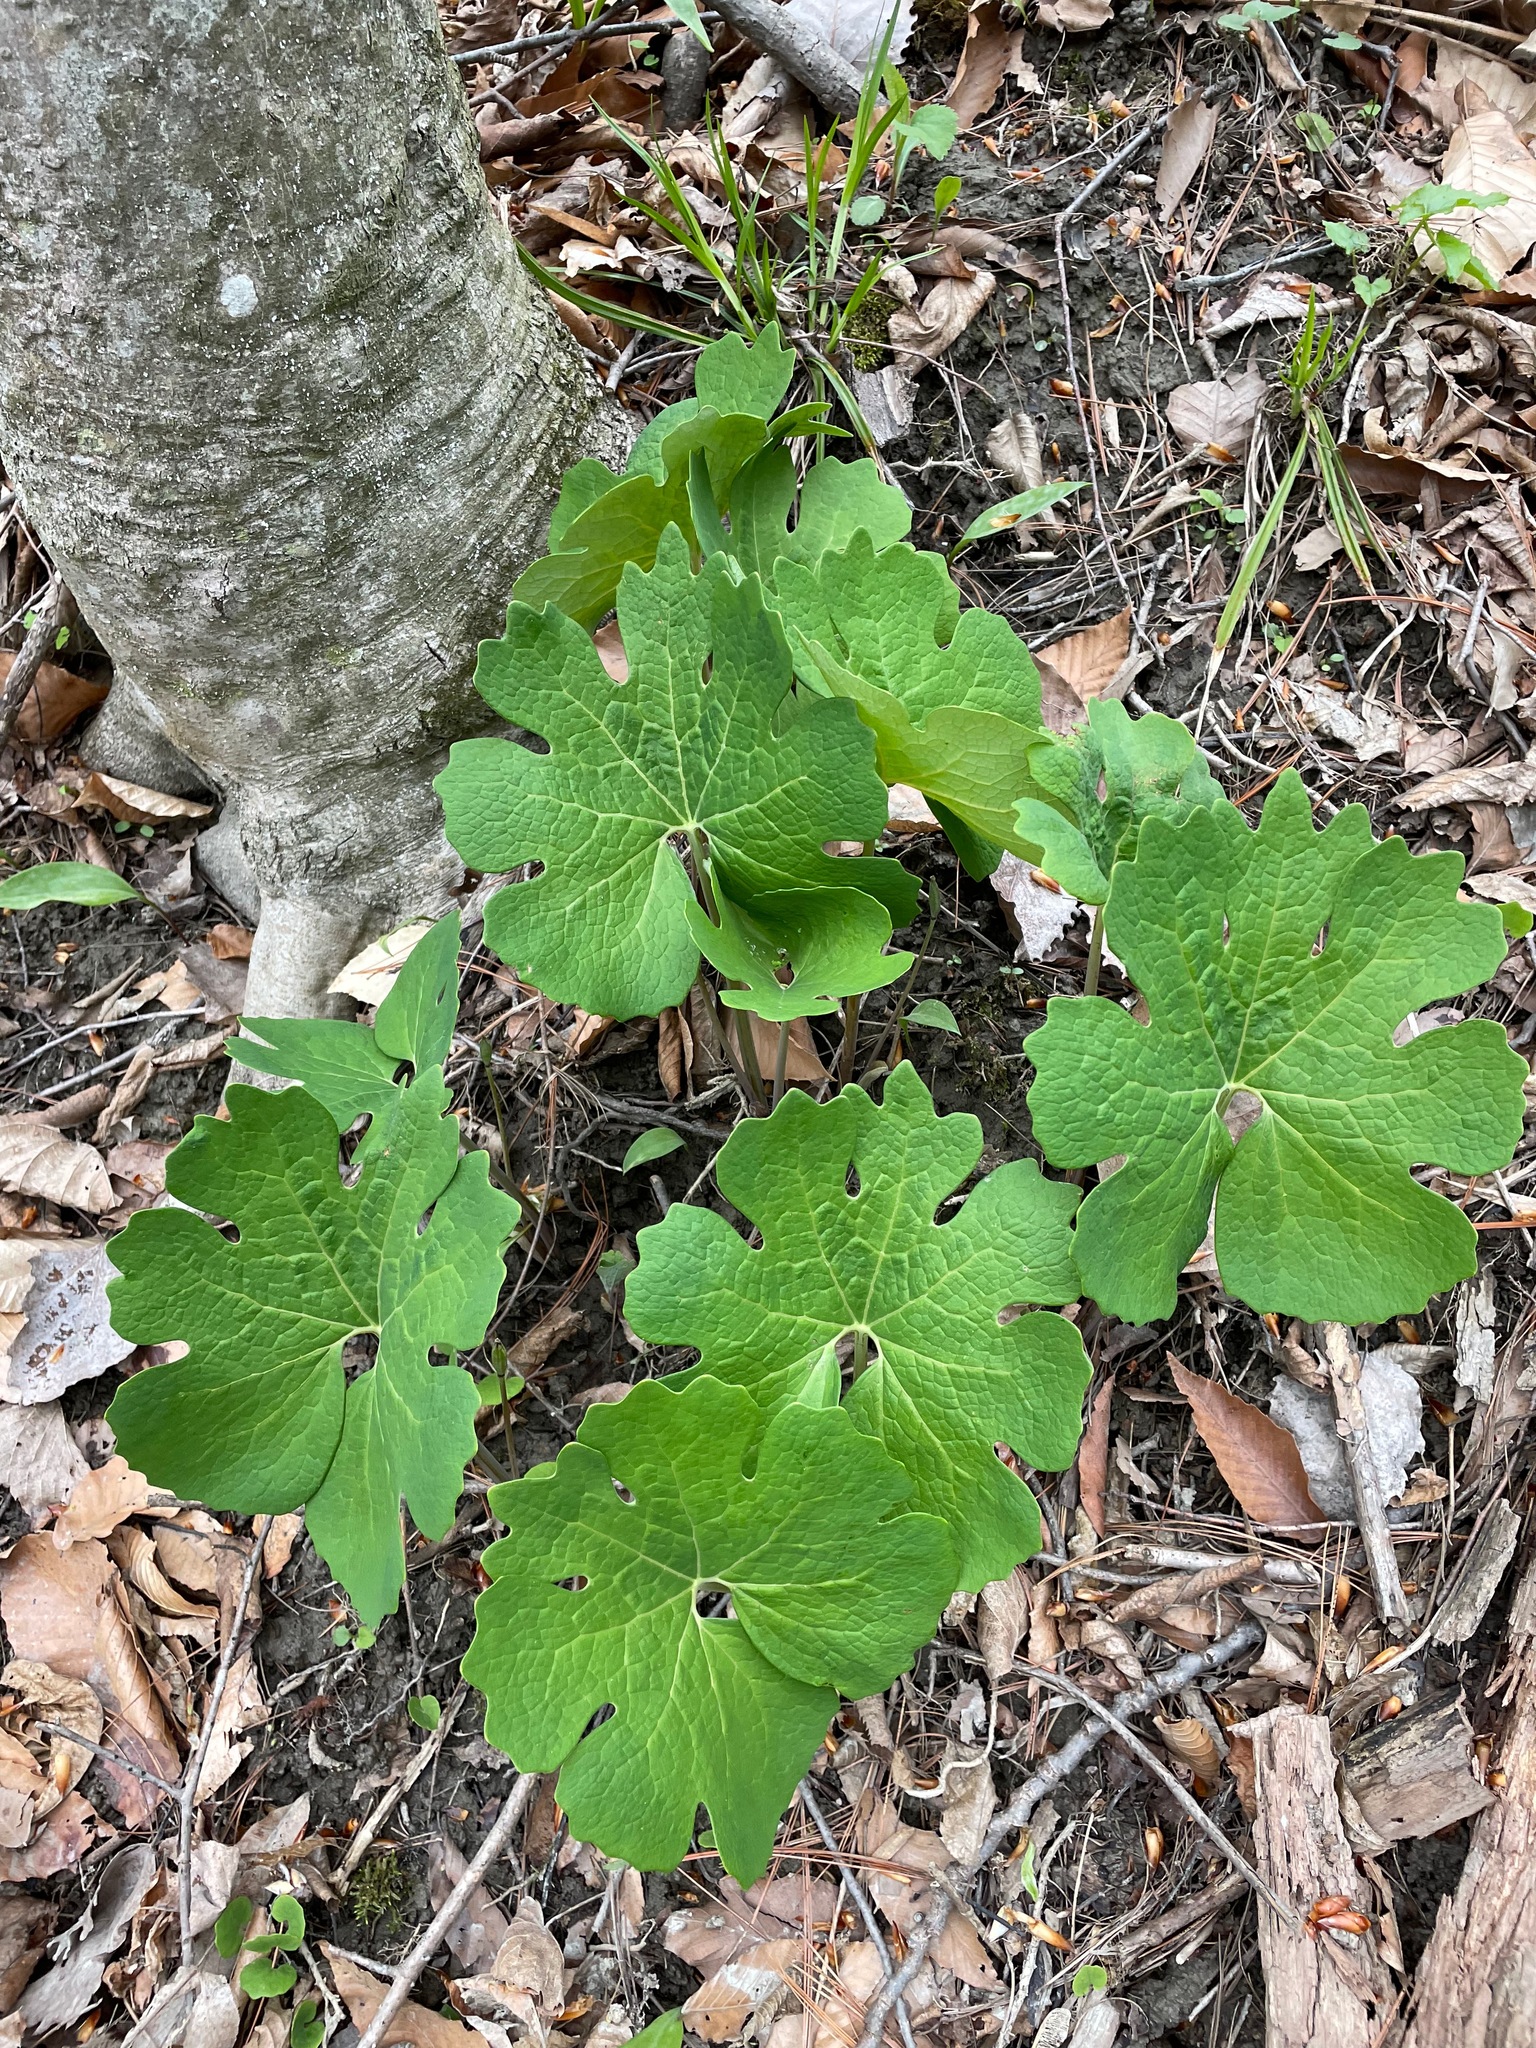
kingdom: Plantae
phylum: Tracheophyta
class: Magnoliopsida
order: Ranunculales
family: Papaveraceae
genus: Sanguinaria
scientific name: Sanguinaria canadensis
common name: Bloodroot
